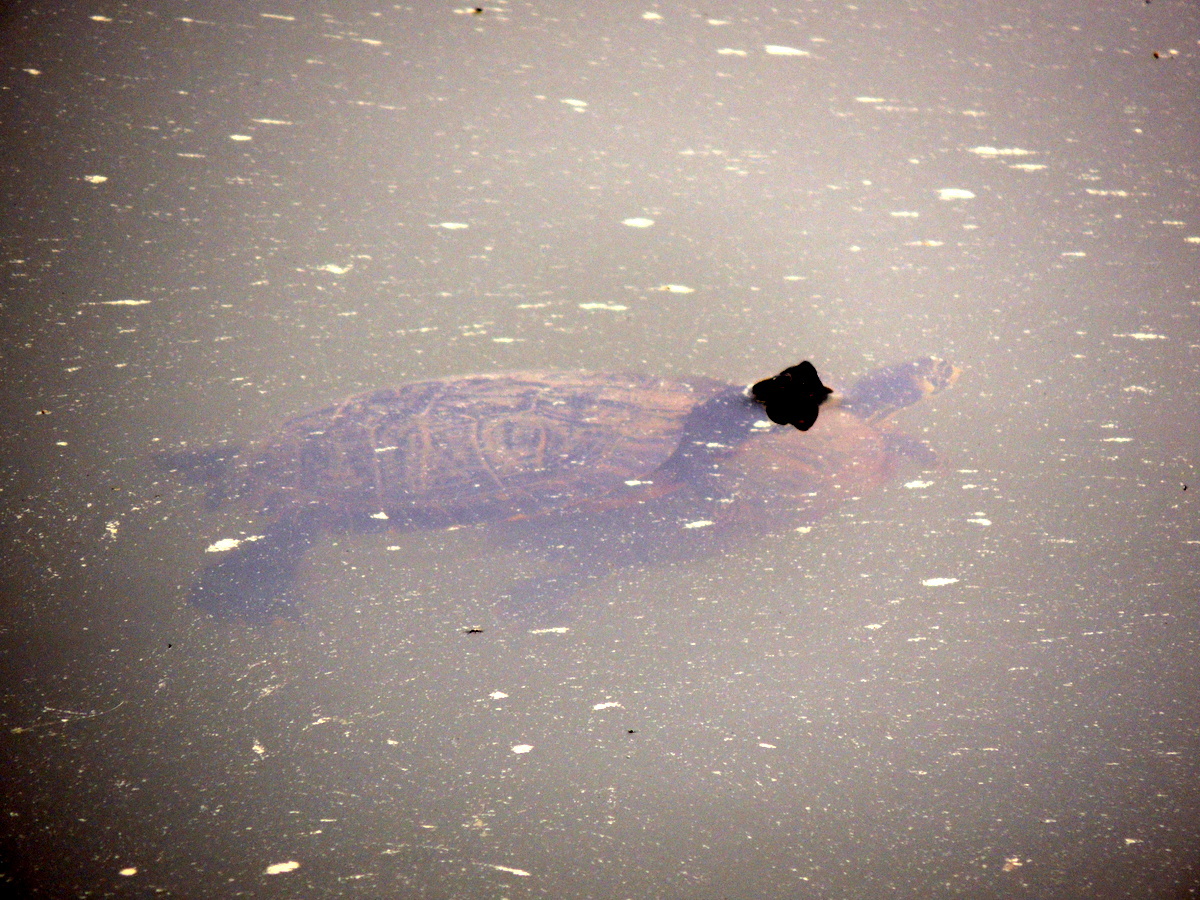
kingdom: Animalia
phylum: Chordata
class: Testudines
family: Emydidae
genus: Trachemys
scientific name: Trachemys scripta
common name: Slider
